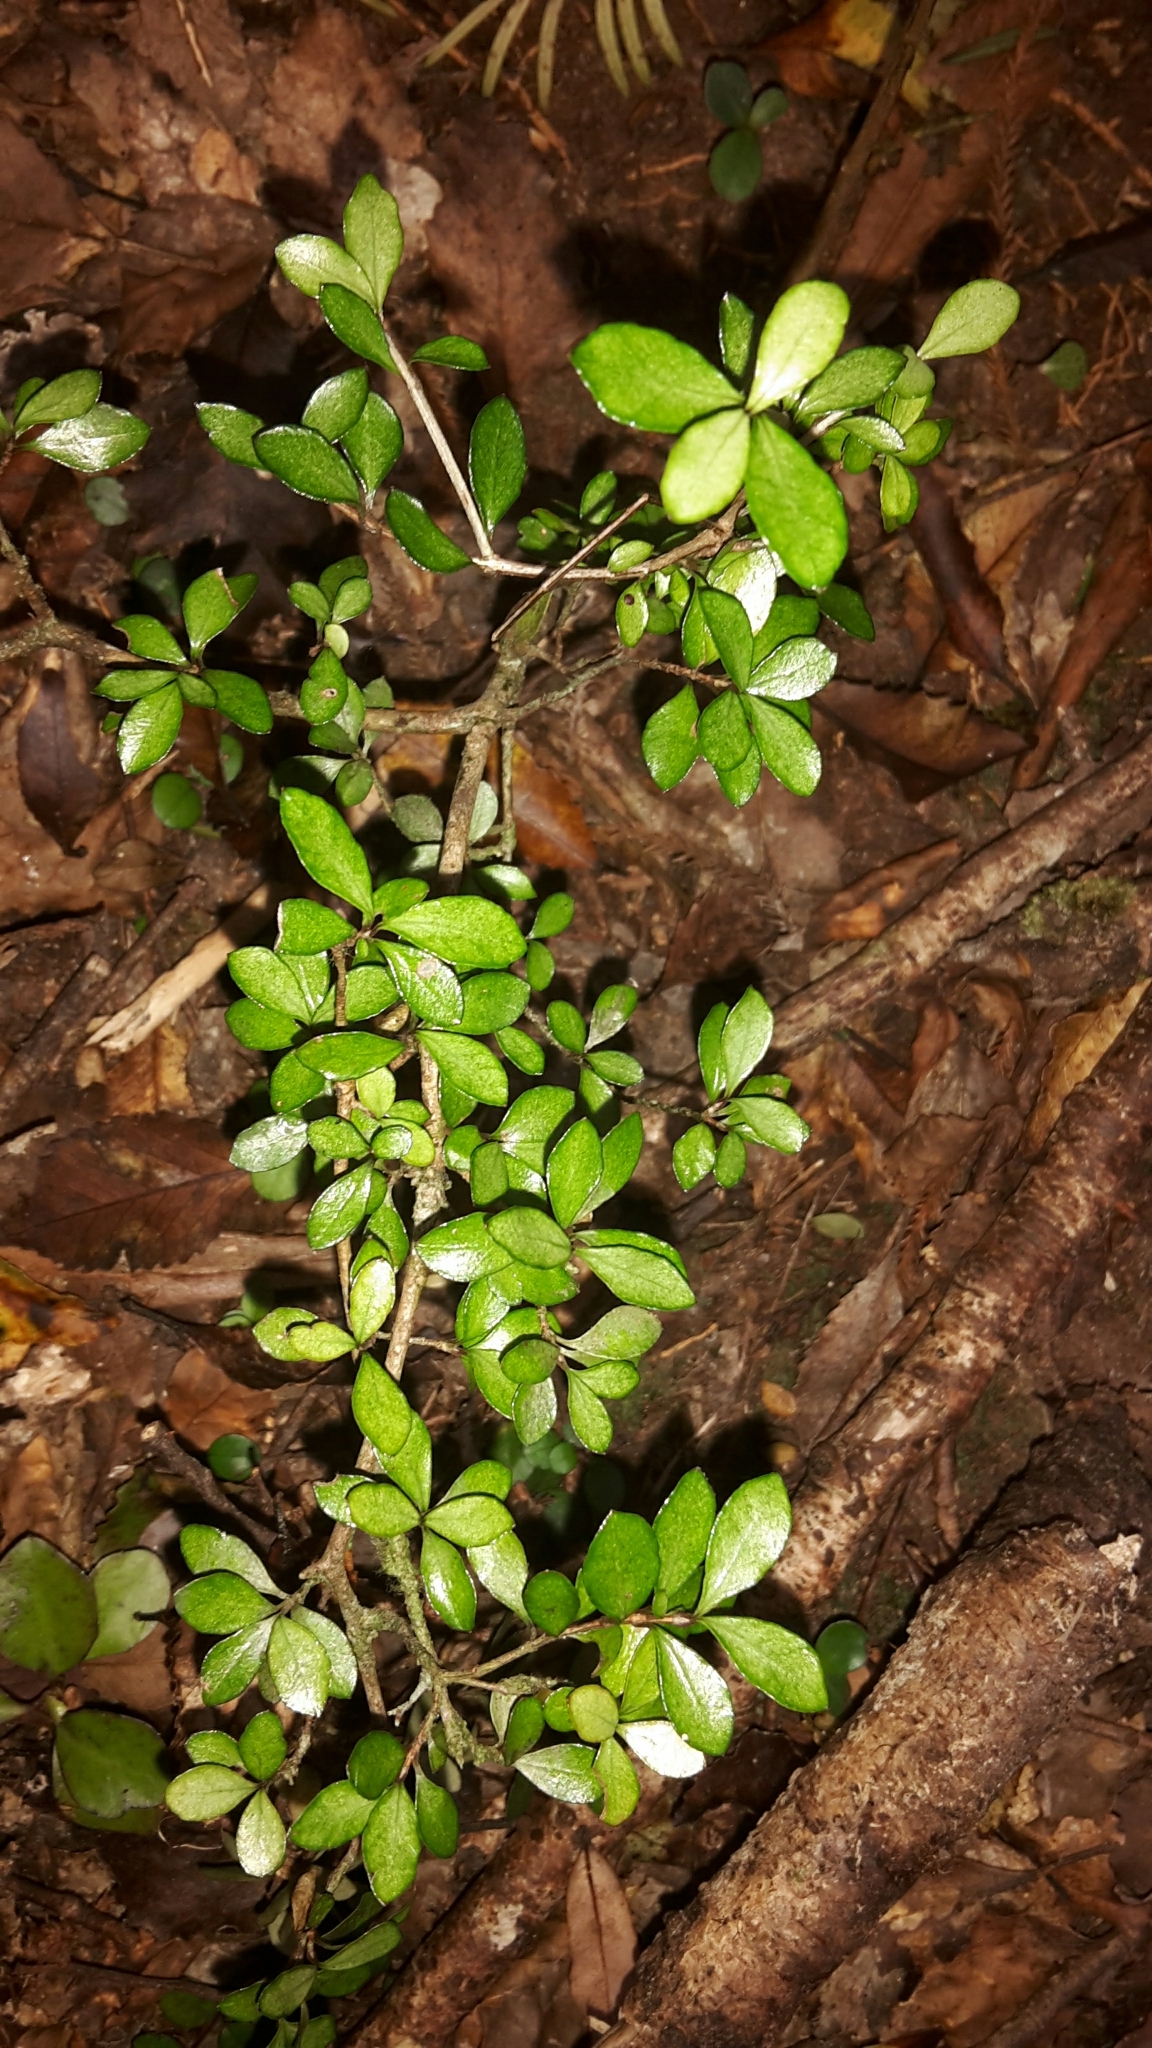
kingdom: Plantae
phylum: Tracheophyta
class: Magnoliopsida
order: Myrtales
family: Myrtaceae
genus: Neomyrtus
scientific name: Neomyrtus pedunculata
